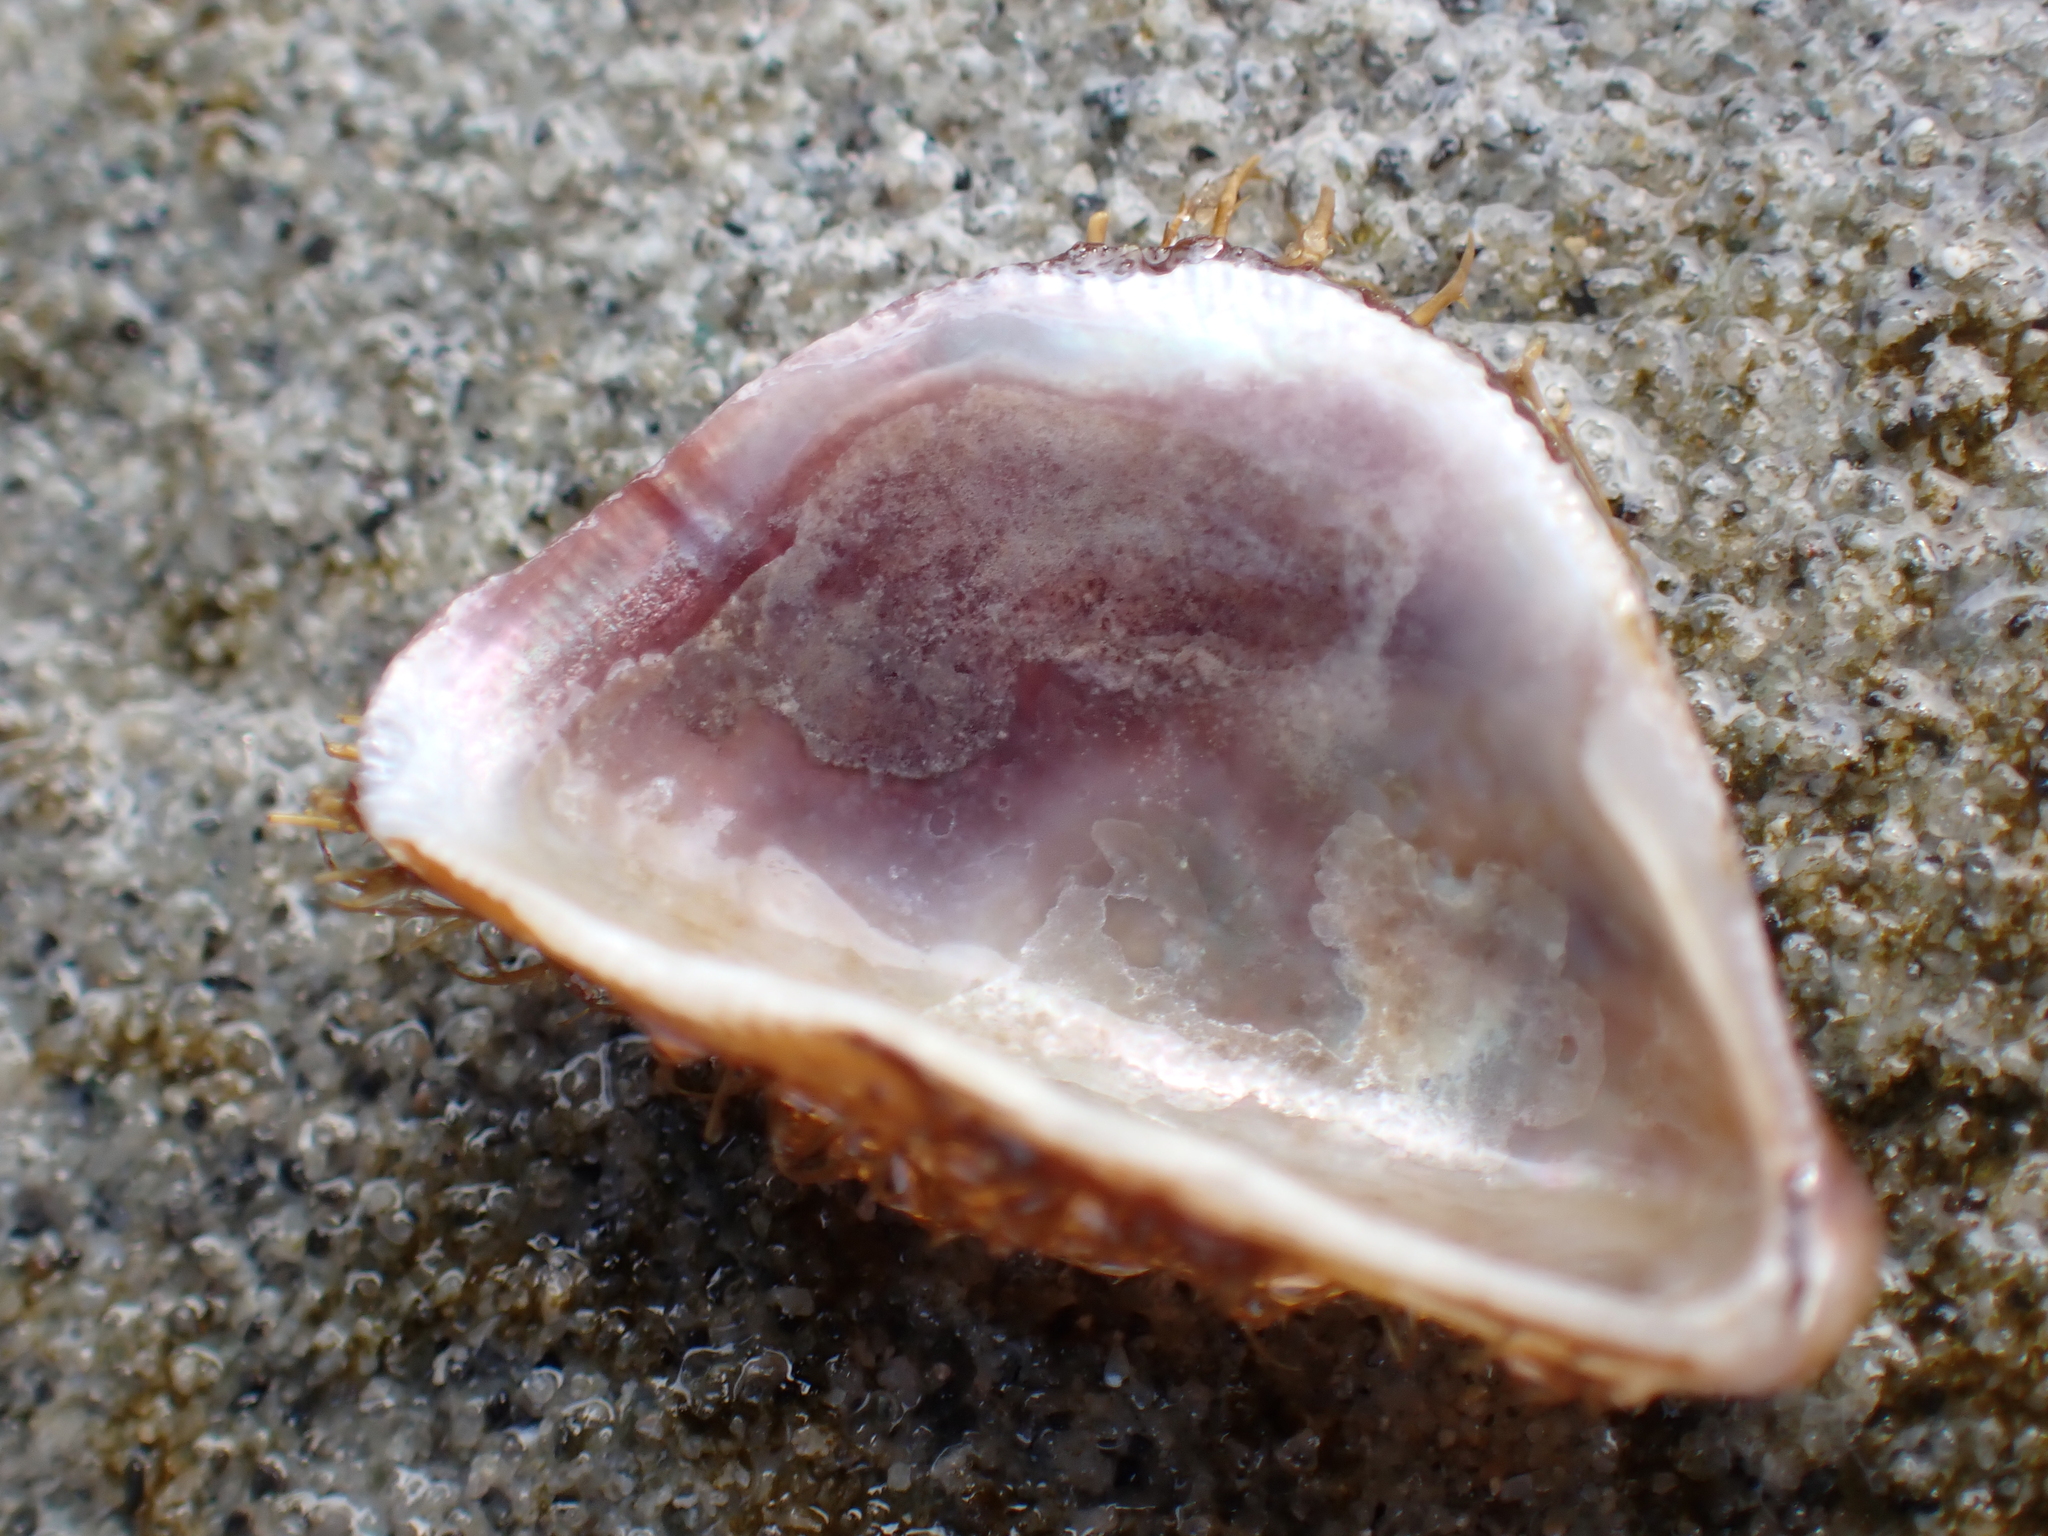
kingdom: Animalia
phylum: Mollusca
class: Bivalvia
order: Mytilida
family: Mytilidae
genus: Trichomya
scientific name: Trichomya hirsuta
